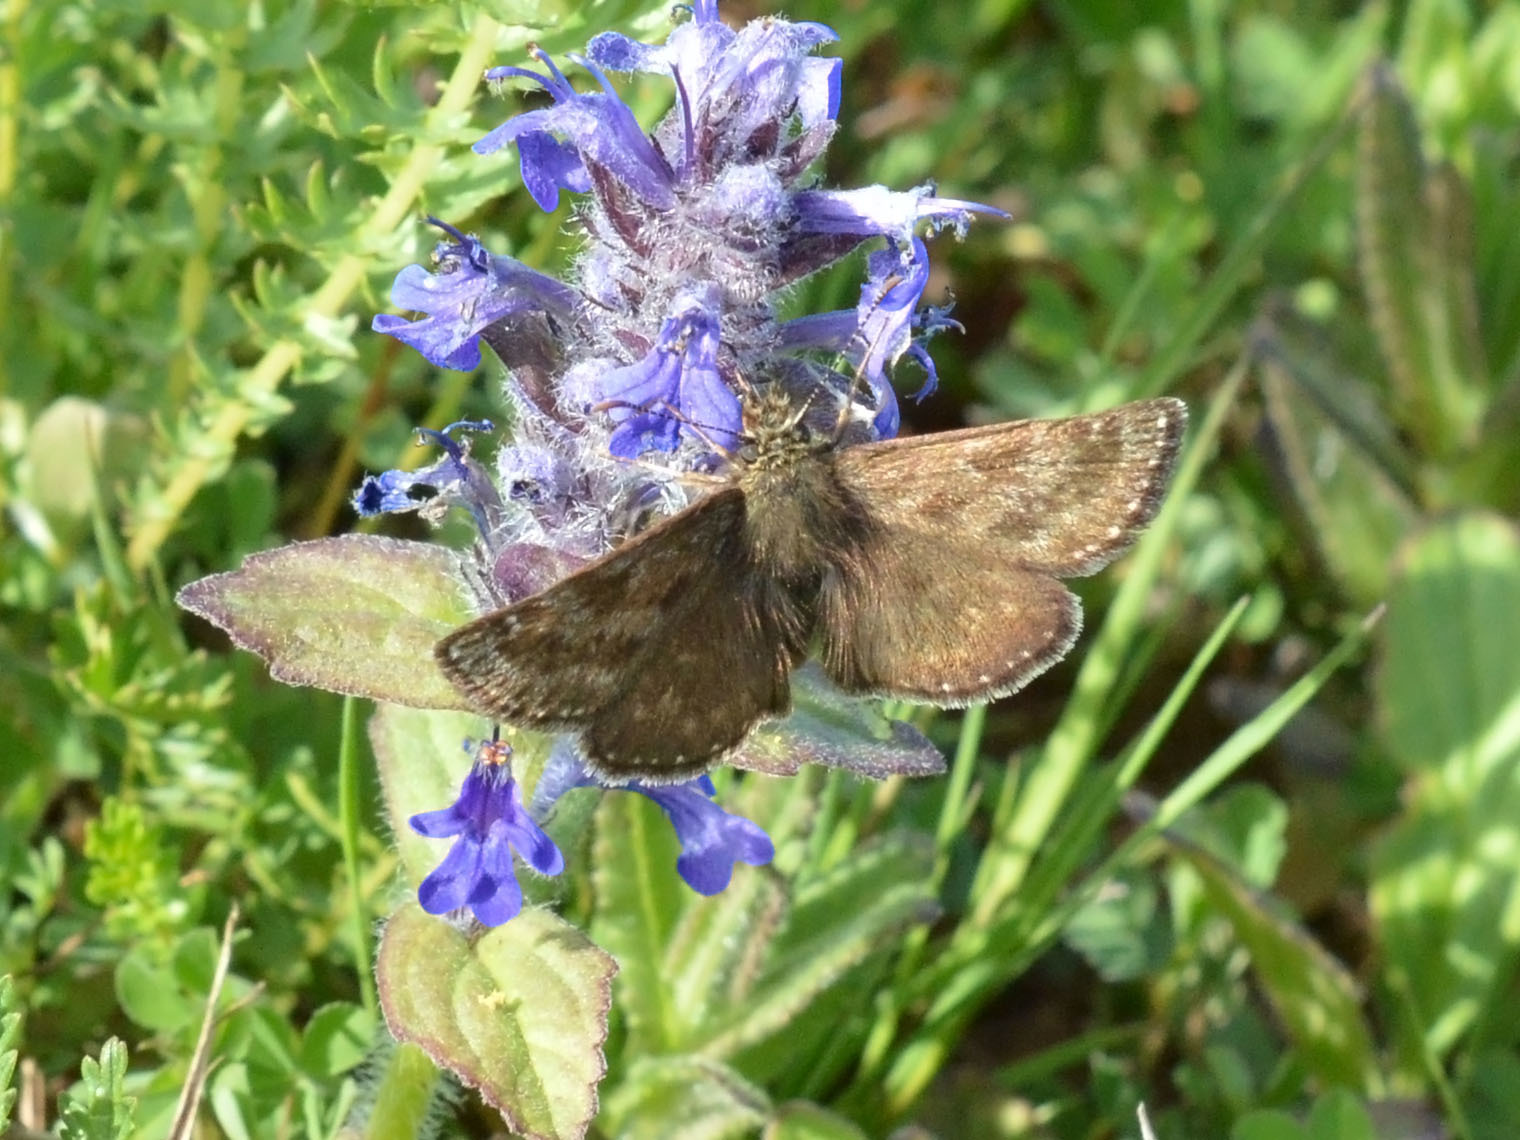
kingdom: Animalia
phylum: Arthropoda
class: Insecta
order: Lepidoptera
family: Hesperiidae
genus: Erynnis
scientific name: Erynnis tages
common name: Dingy skipper
